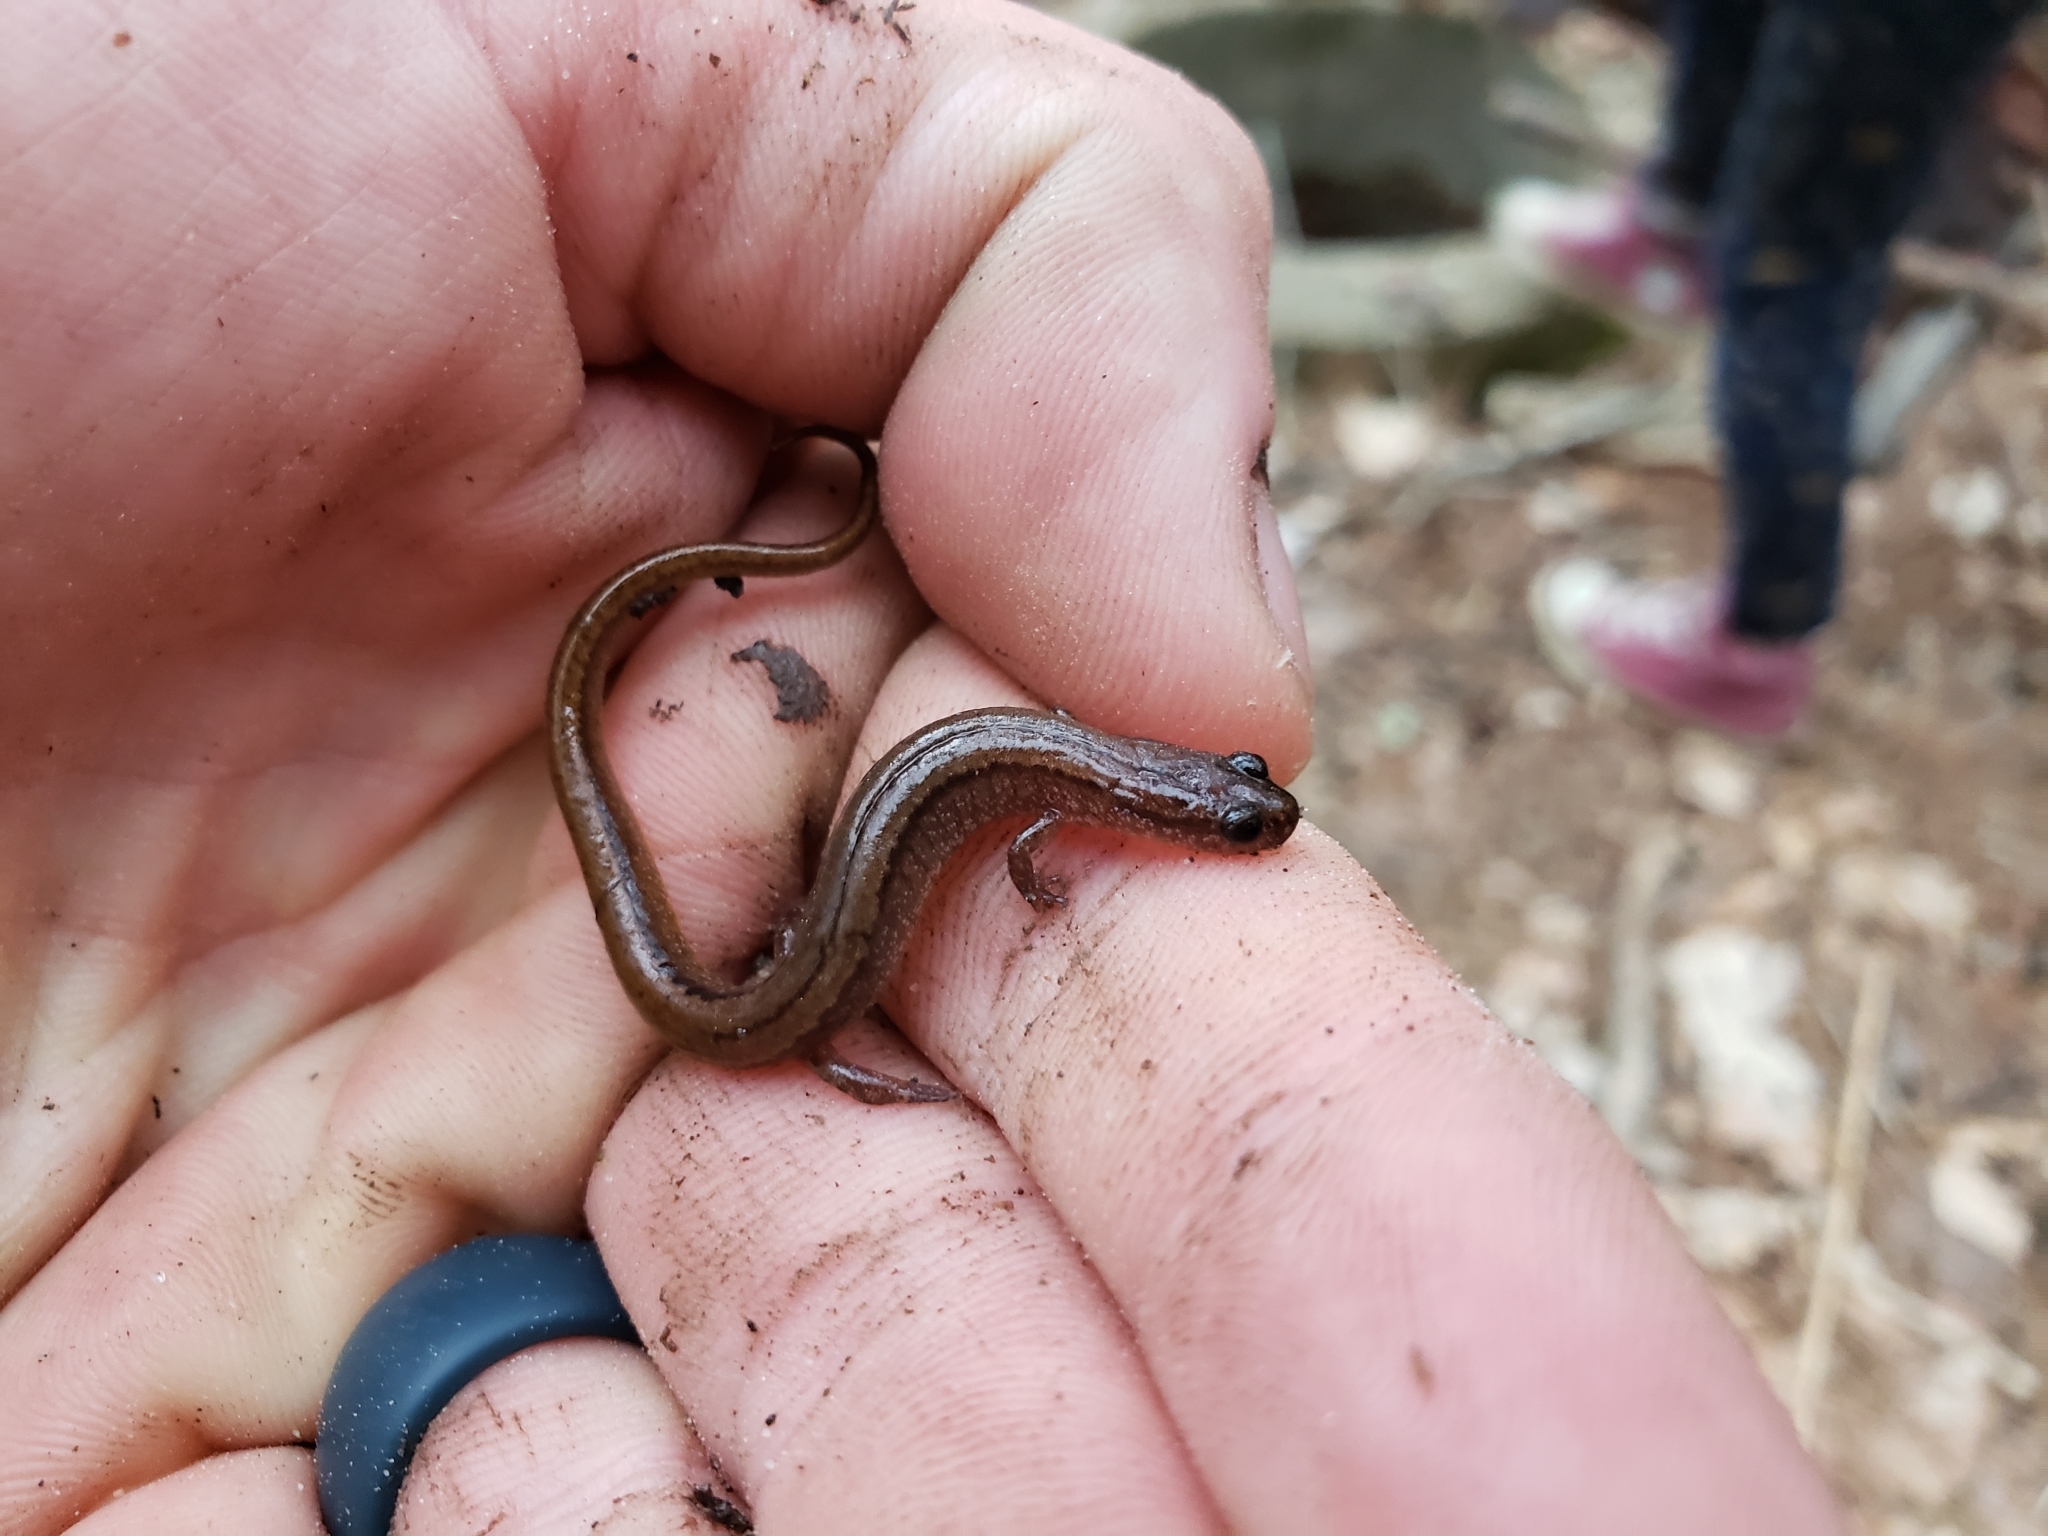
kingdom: Animalia
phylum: Chordata
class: Amphibia
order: Caudata
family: Plethodontidae
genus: Eurycea
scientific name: Eurycea paludicola
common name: Western dwarf salamander
